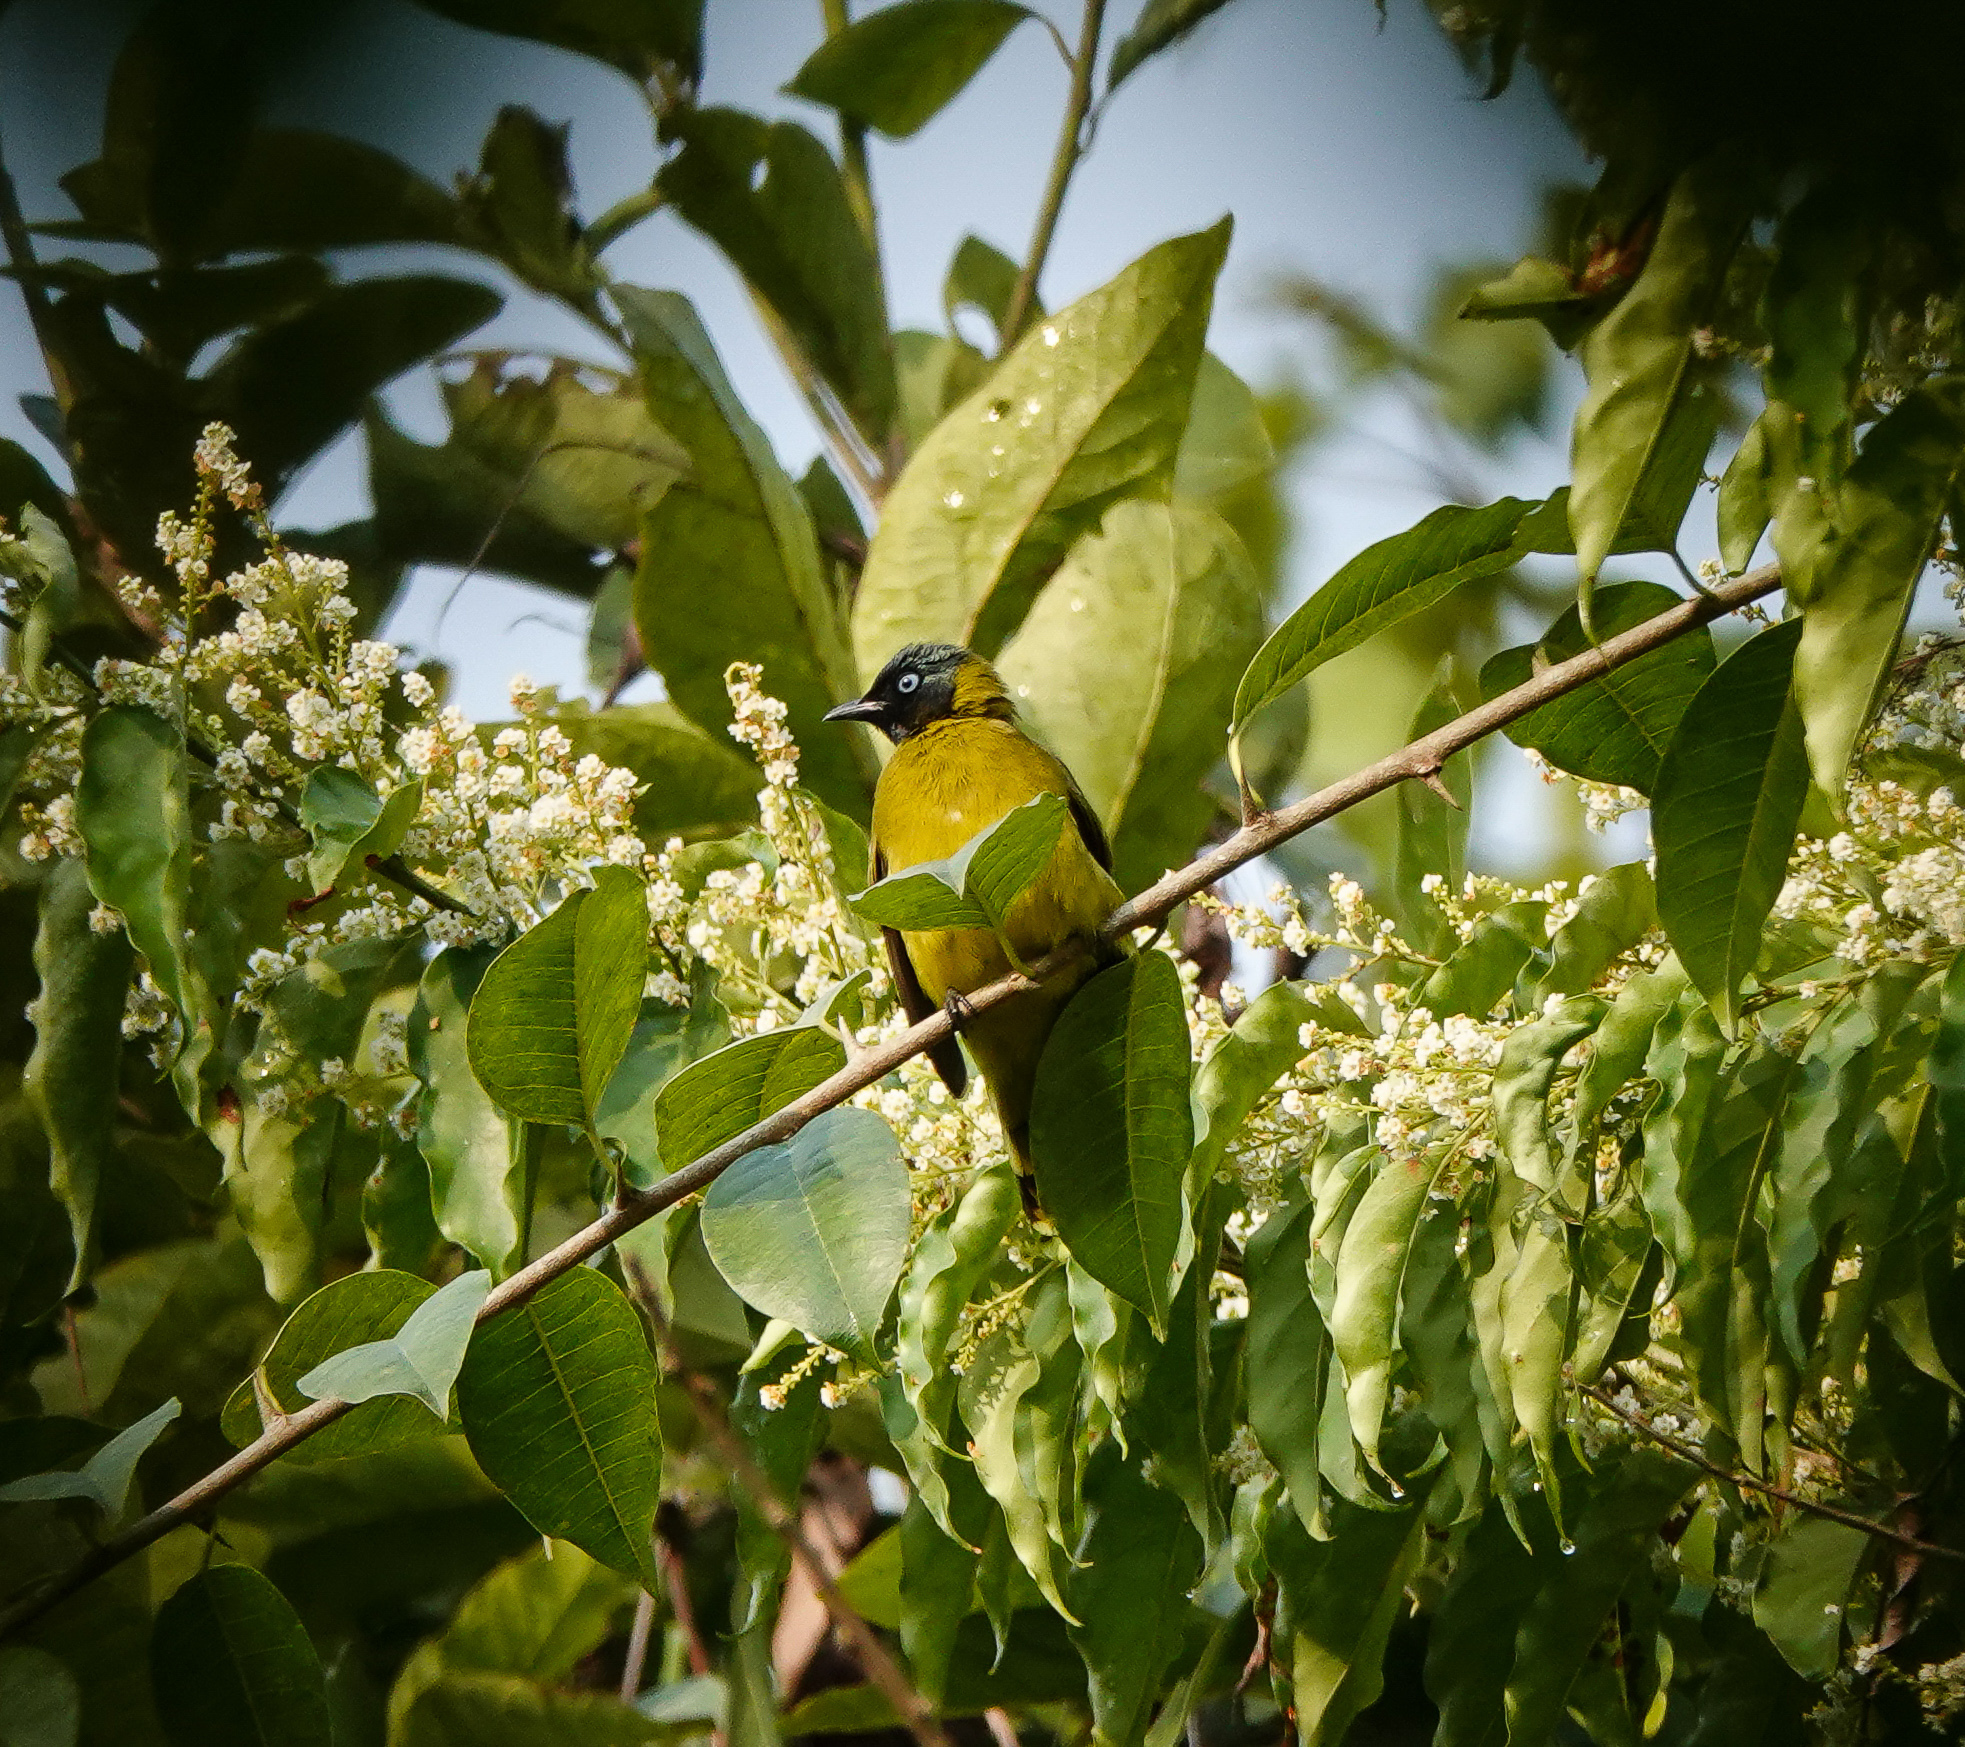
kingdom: Animalia
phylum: Chordata
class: Aves
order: Passeriformes
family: Pycnonotidae
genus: Microtarsus
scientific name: Microtarsus
